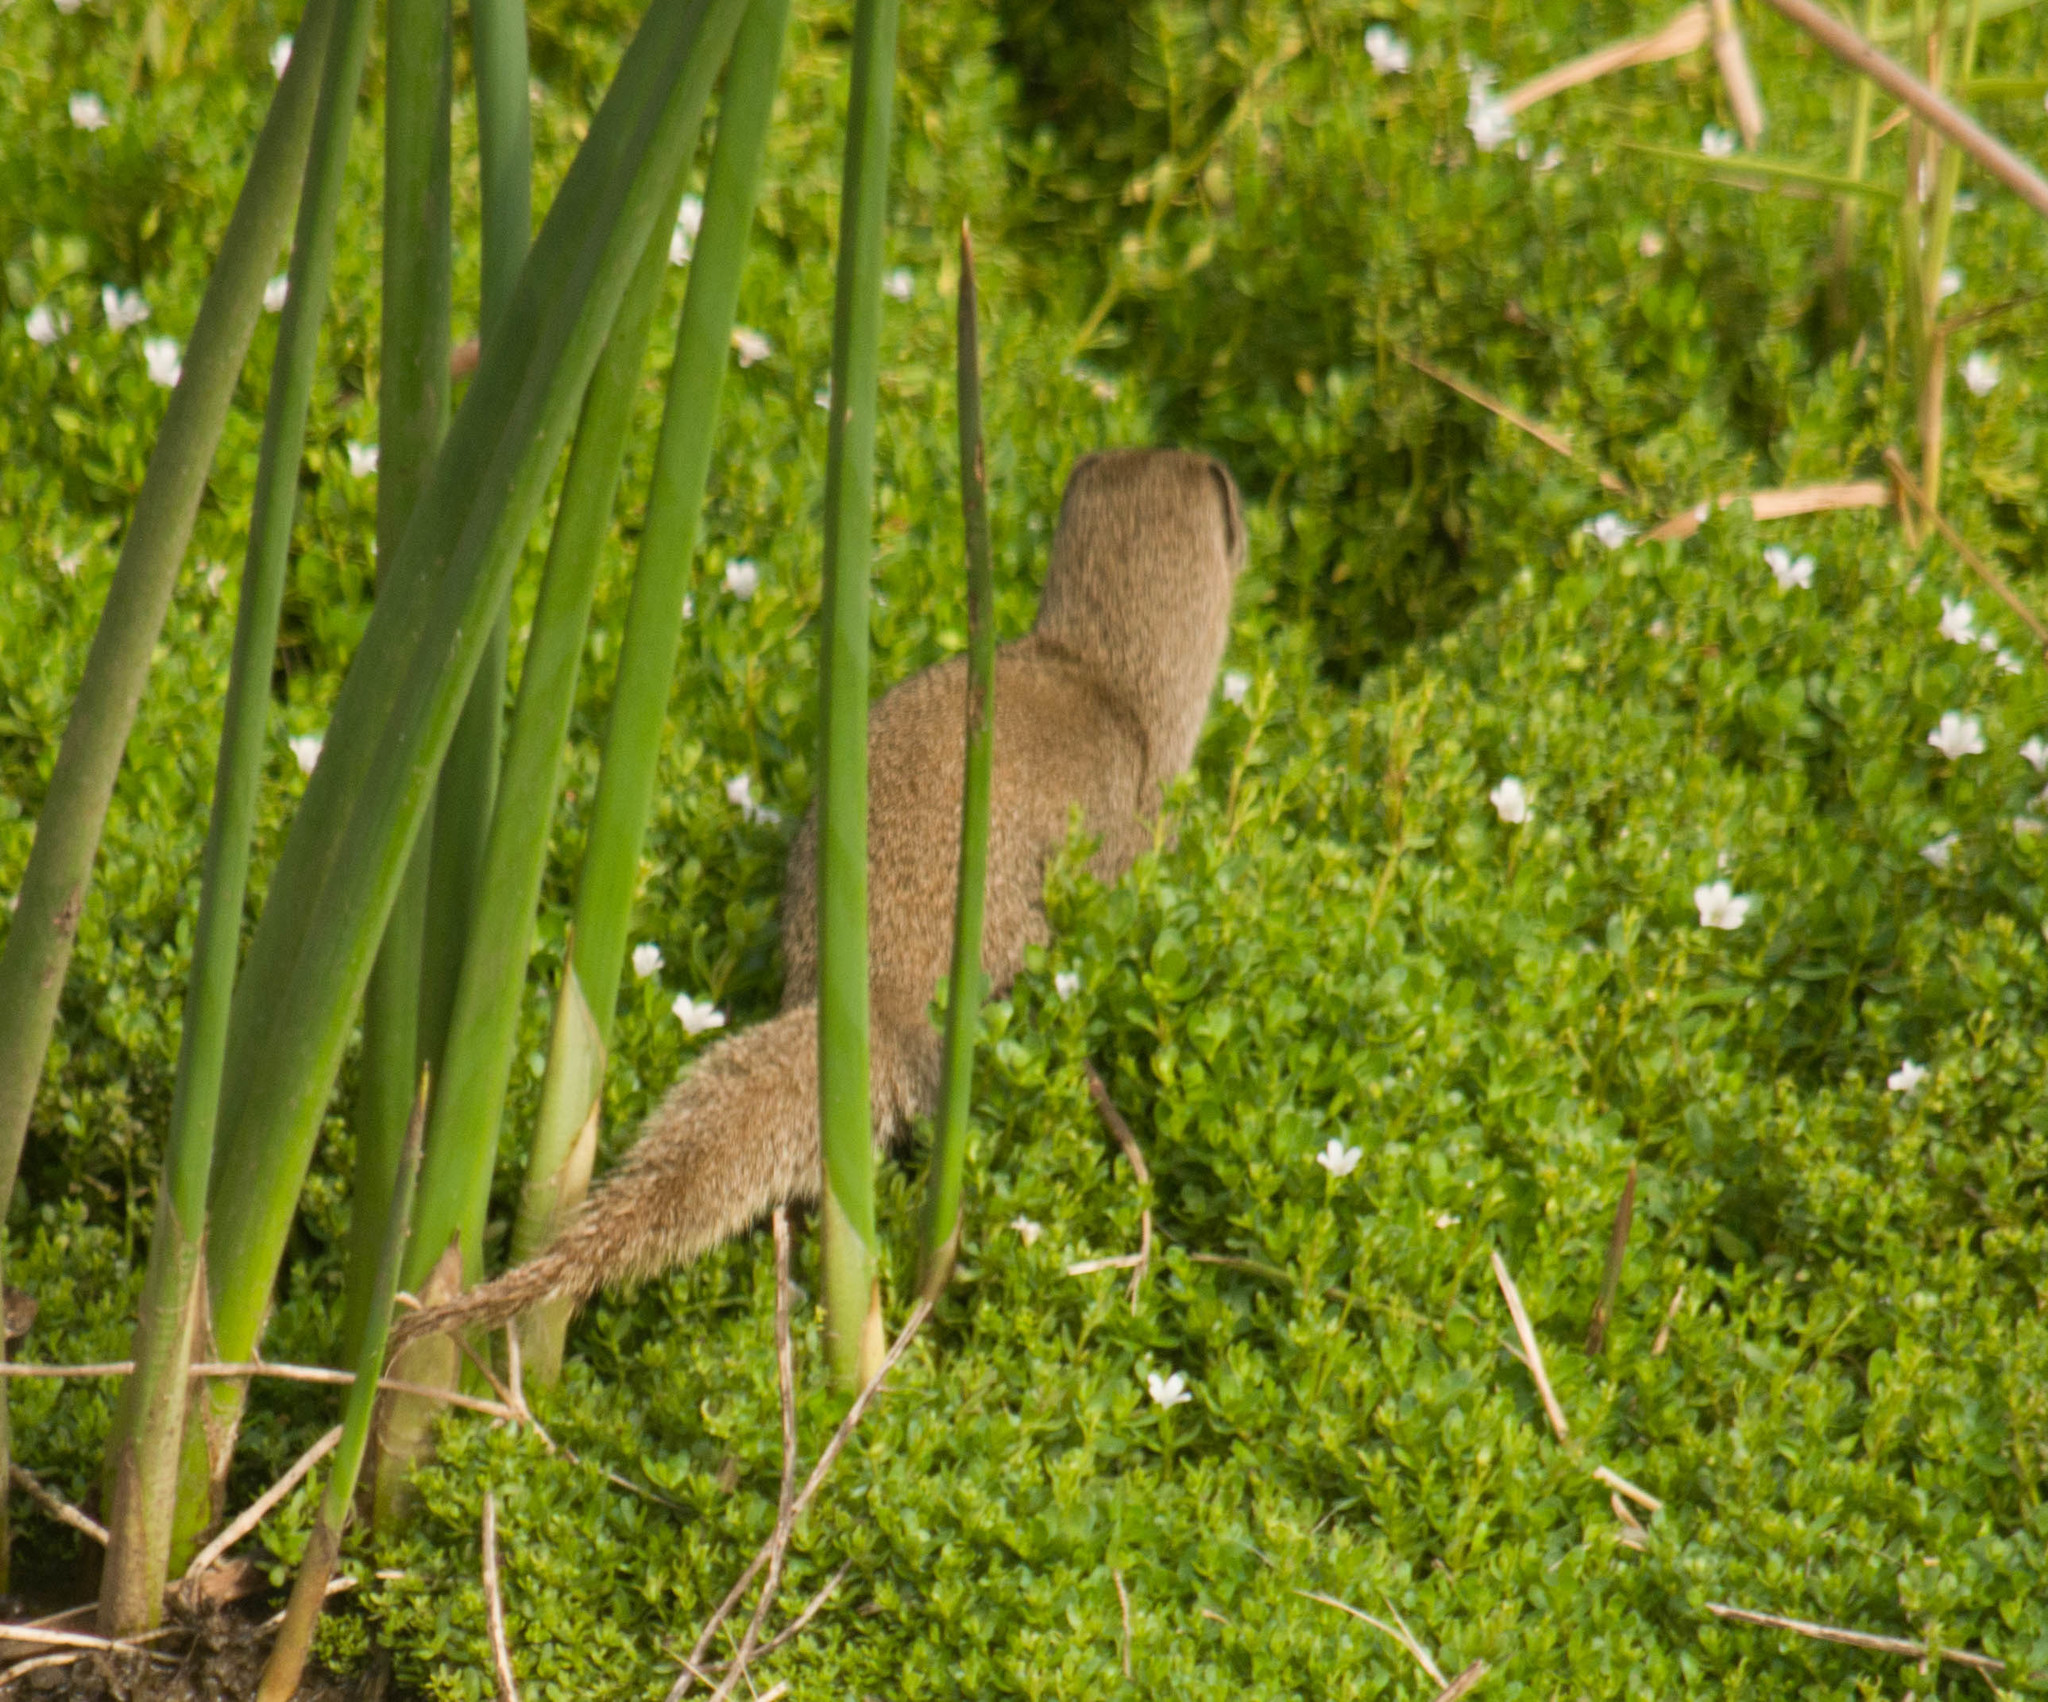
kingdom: Animalia
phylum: Chordata
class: Mammalia
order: Carnivora
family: Herpestidae
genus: Herpestes
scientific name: Herpestes javanicus
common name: Small asian mongoose
